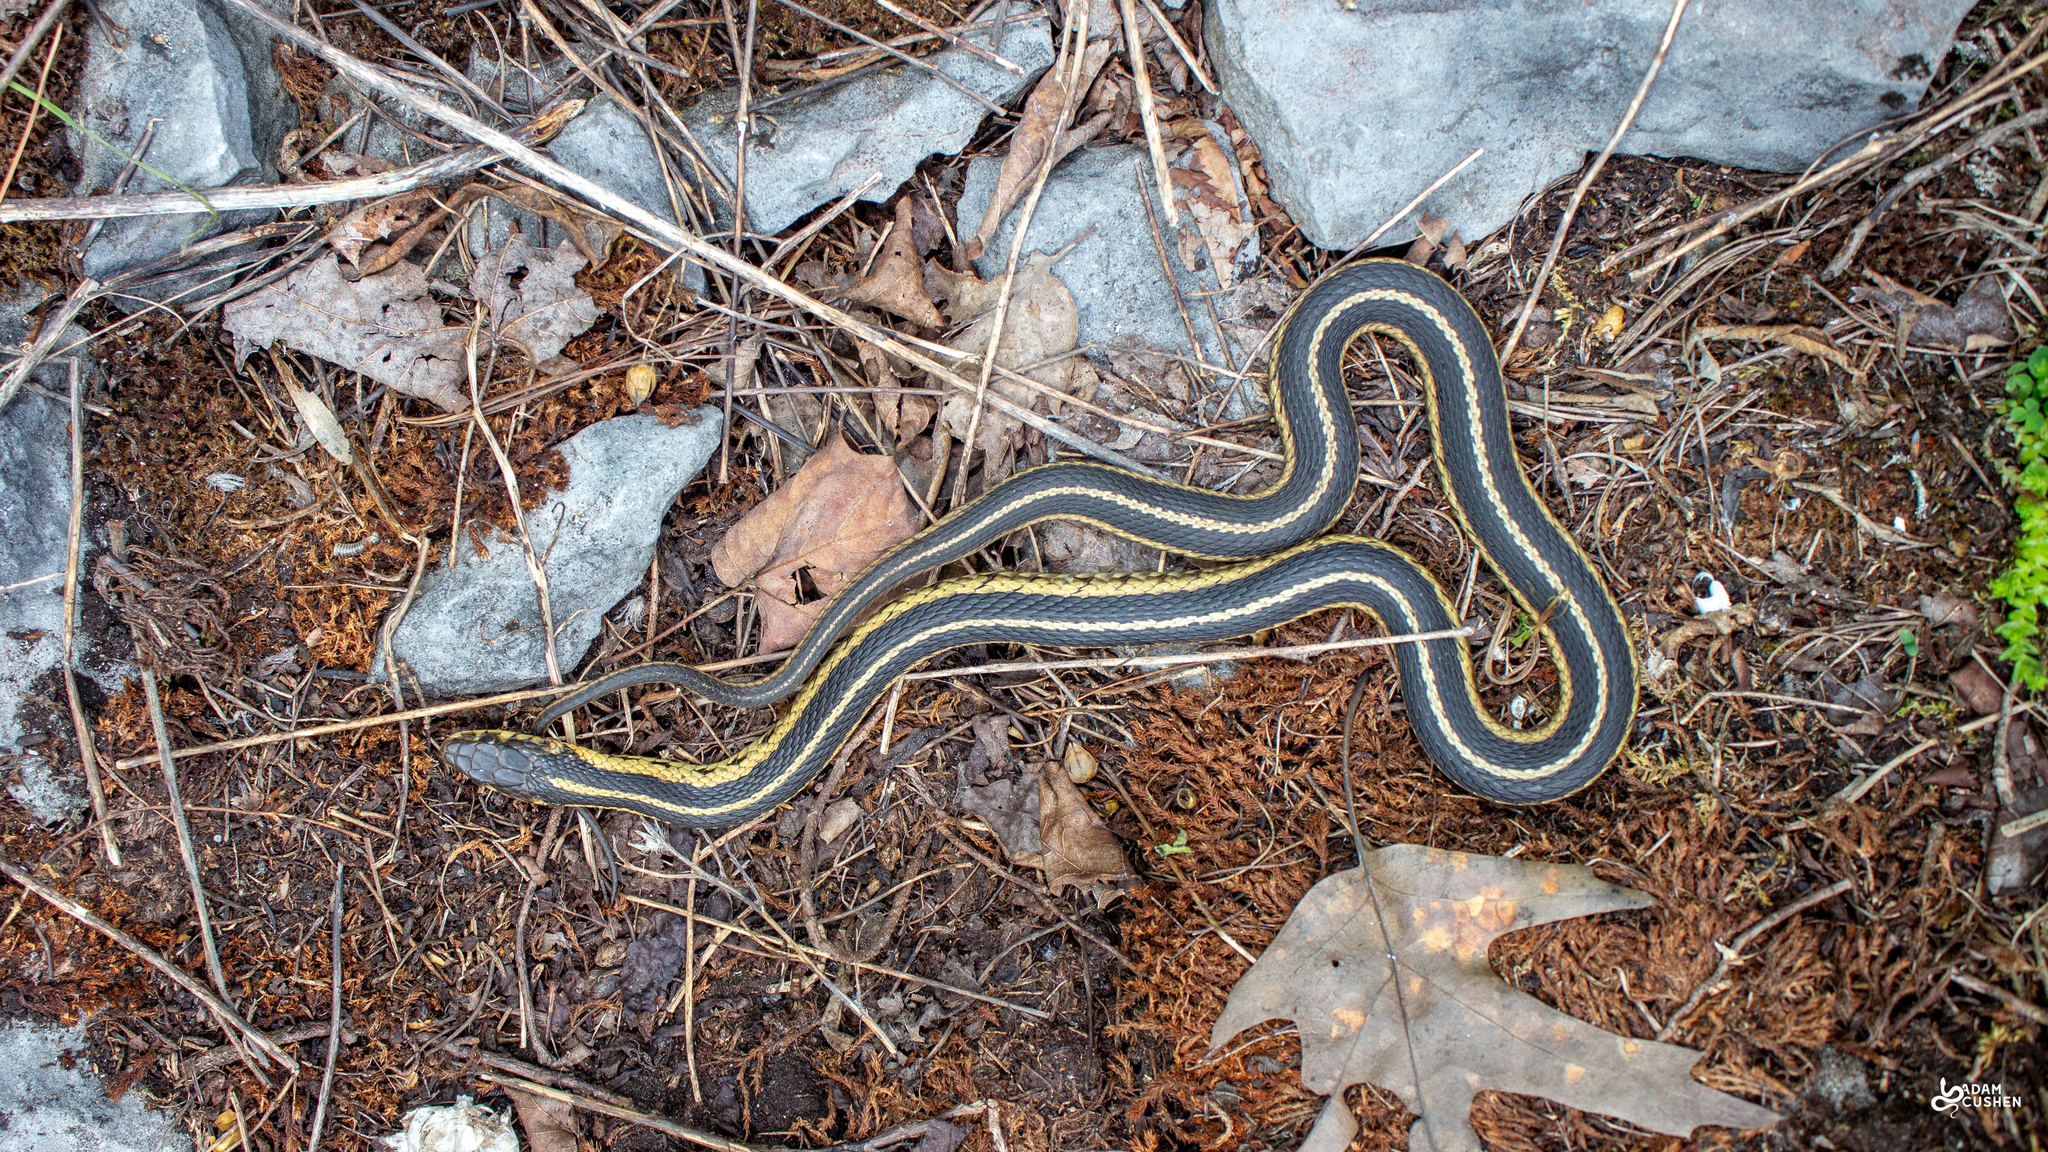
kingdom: Animalia
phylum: Chordata
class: Squamata
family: Colubridae
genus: Thamnophis
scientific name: Thamnophis sirtalis
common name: Common garter snake
